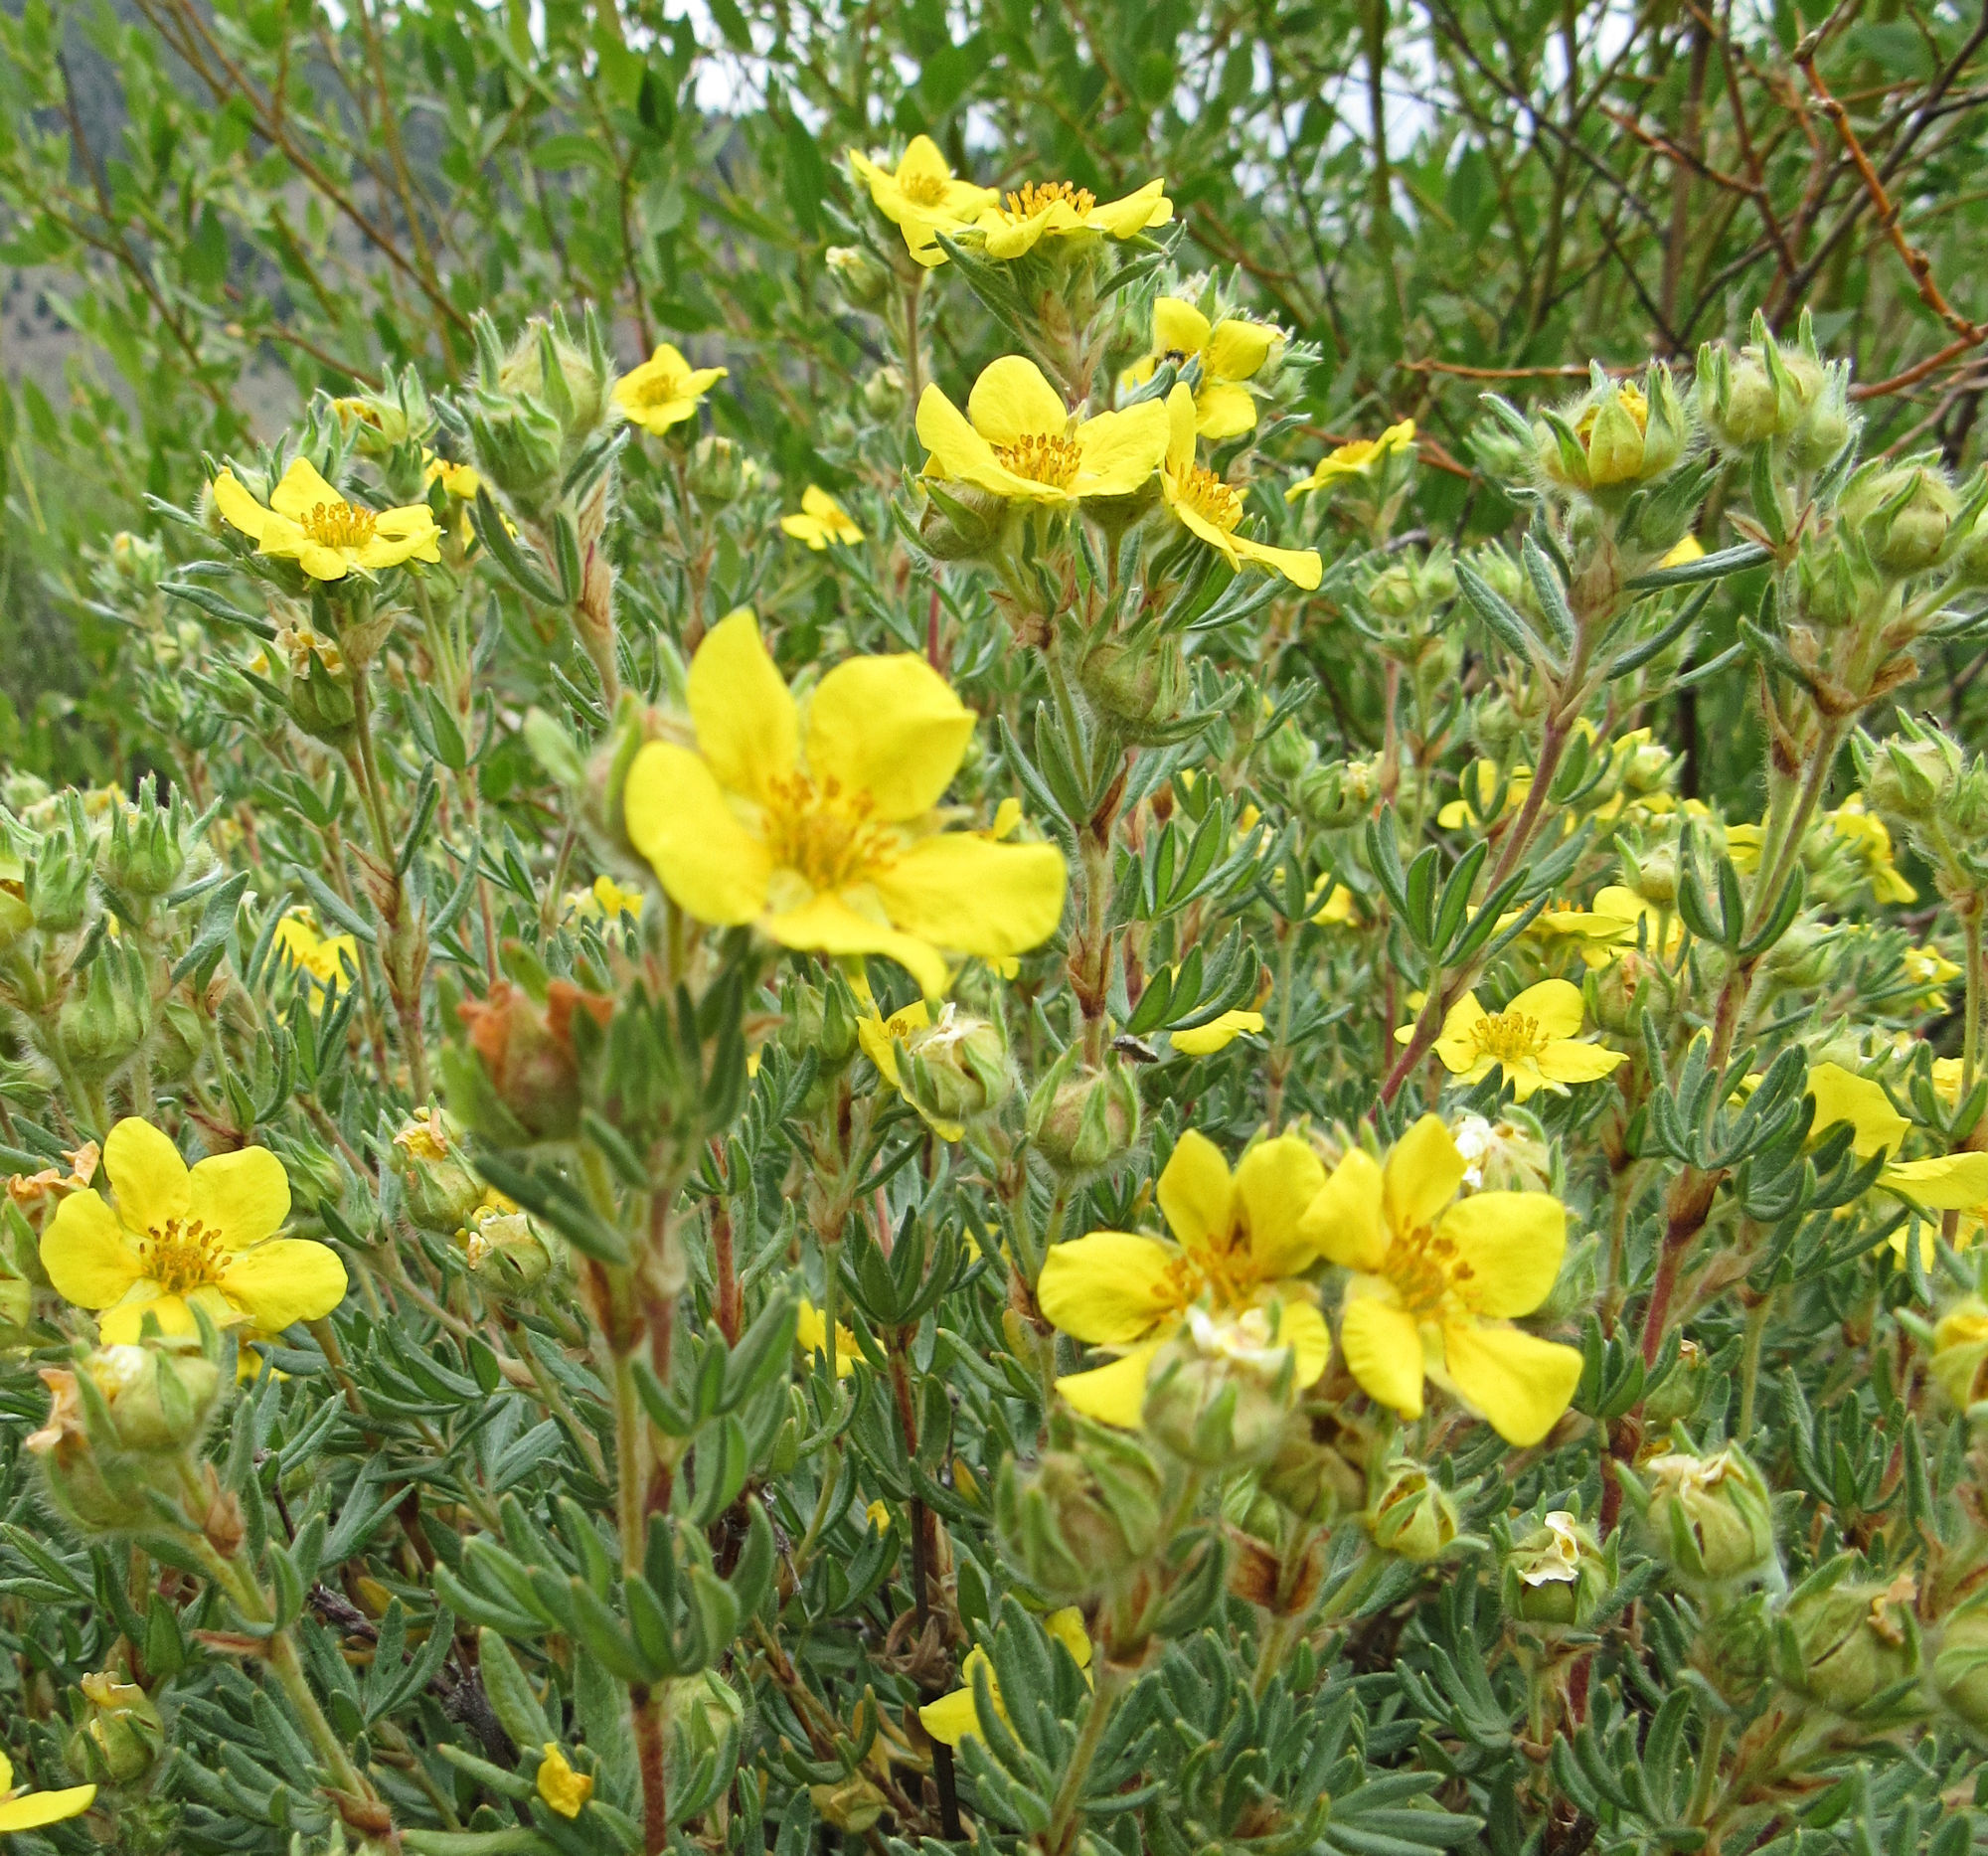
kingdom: Plantae
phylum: Tracheophyta
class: Magnoliopsida
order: Rosales
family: Rosaceae
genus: Dasiphora
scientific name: Dasiphora fruticosa
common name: Shrubby cinquefoil
